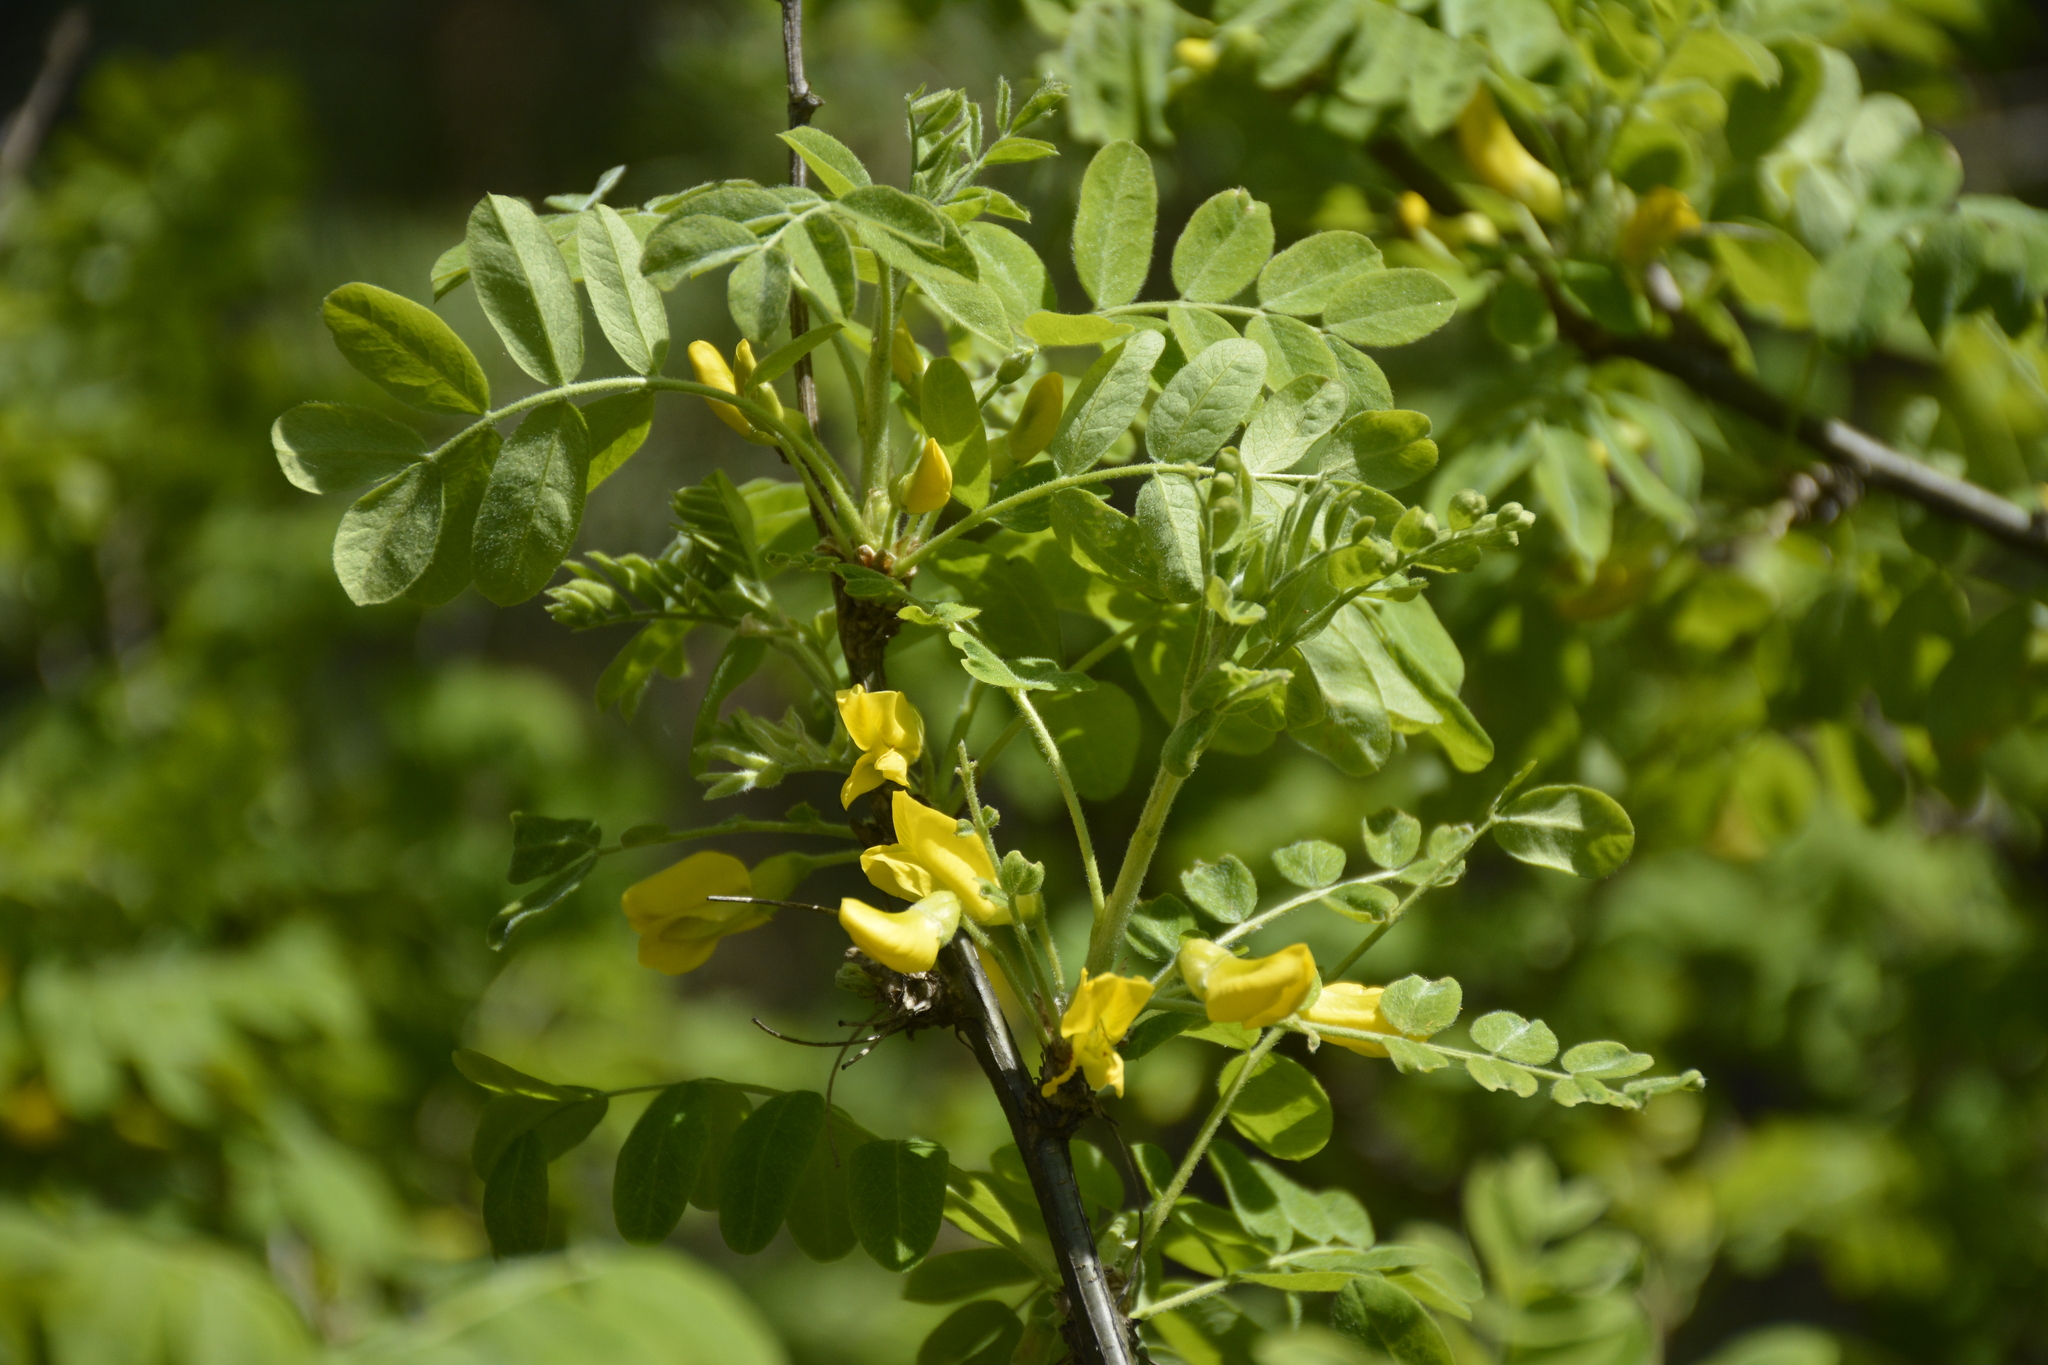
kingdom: Plantae
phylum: Tracheophyta
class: Magnoliopsida
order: Fabales
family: Fabaceae
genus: Caragana
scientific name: Caragana arborescens
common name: Siberian peashrub
